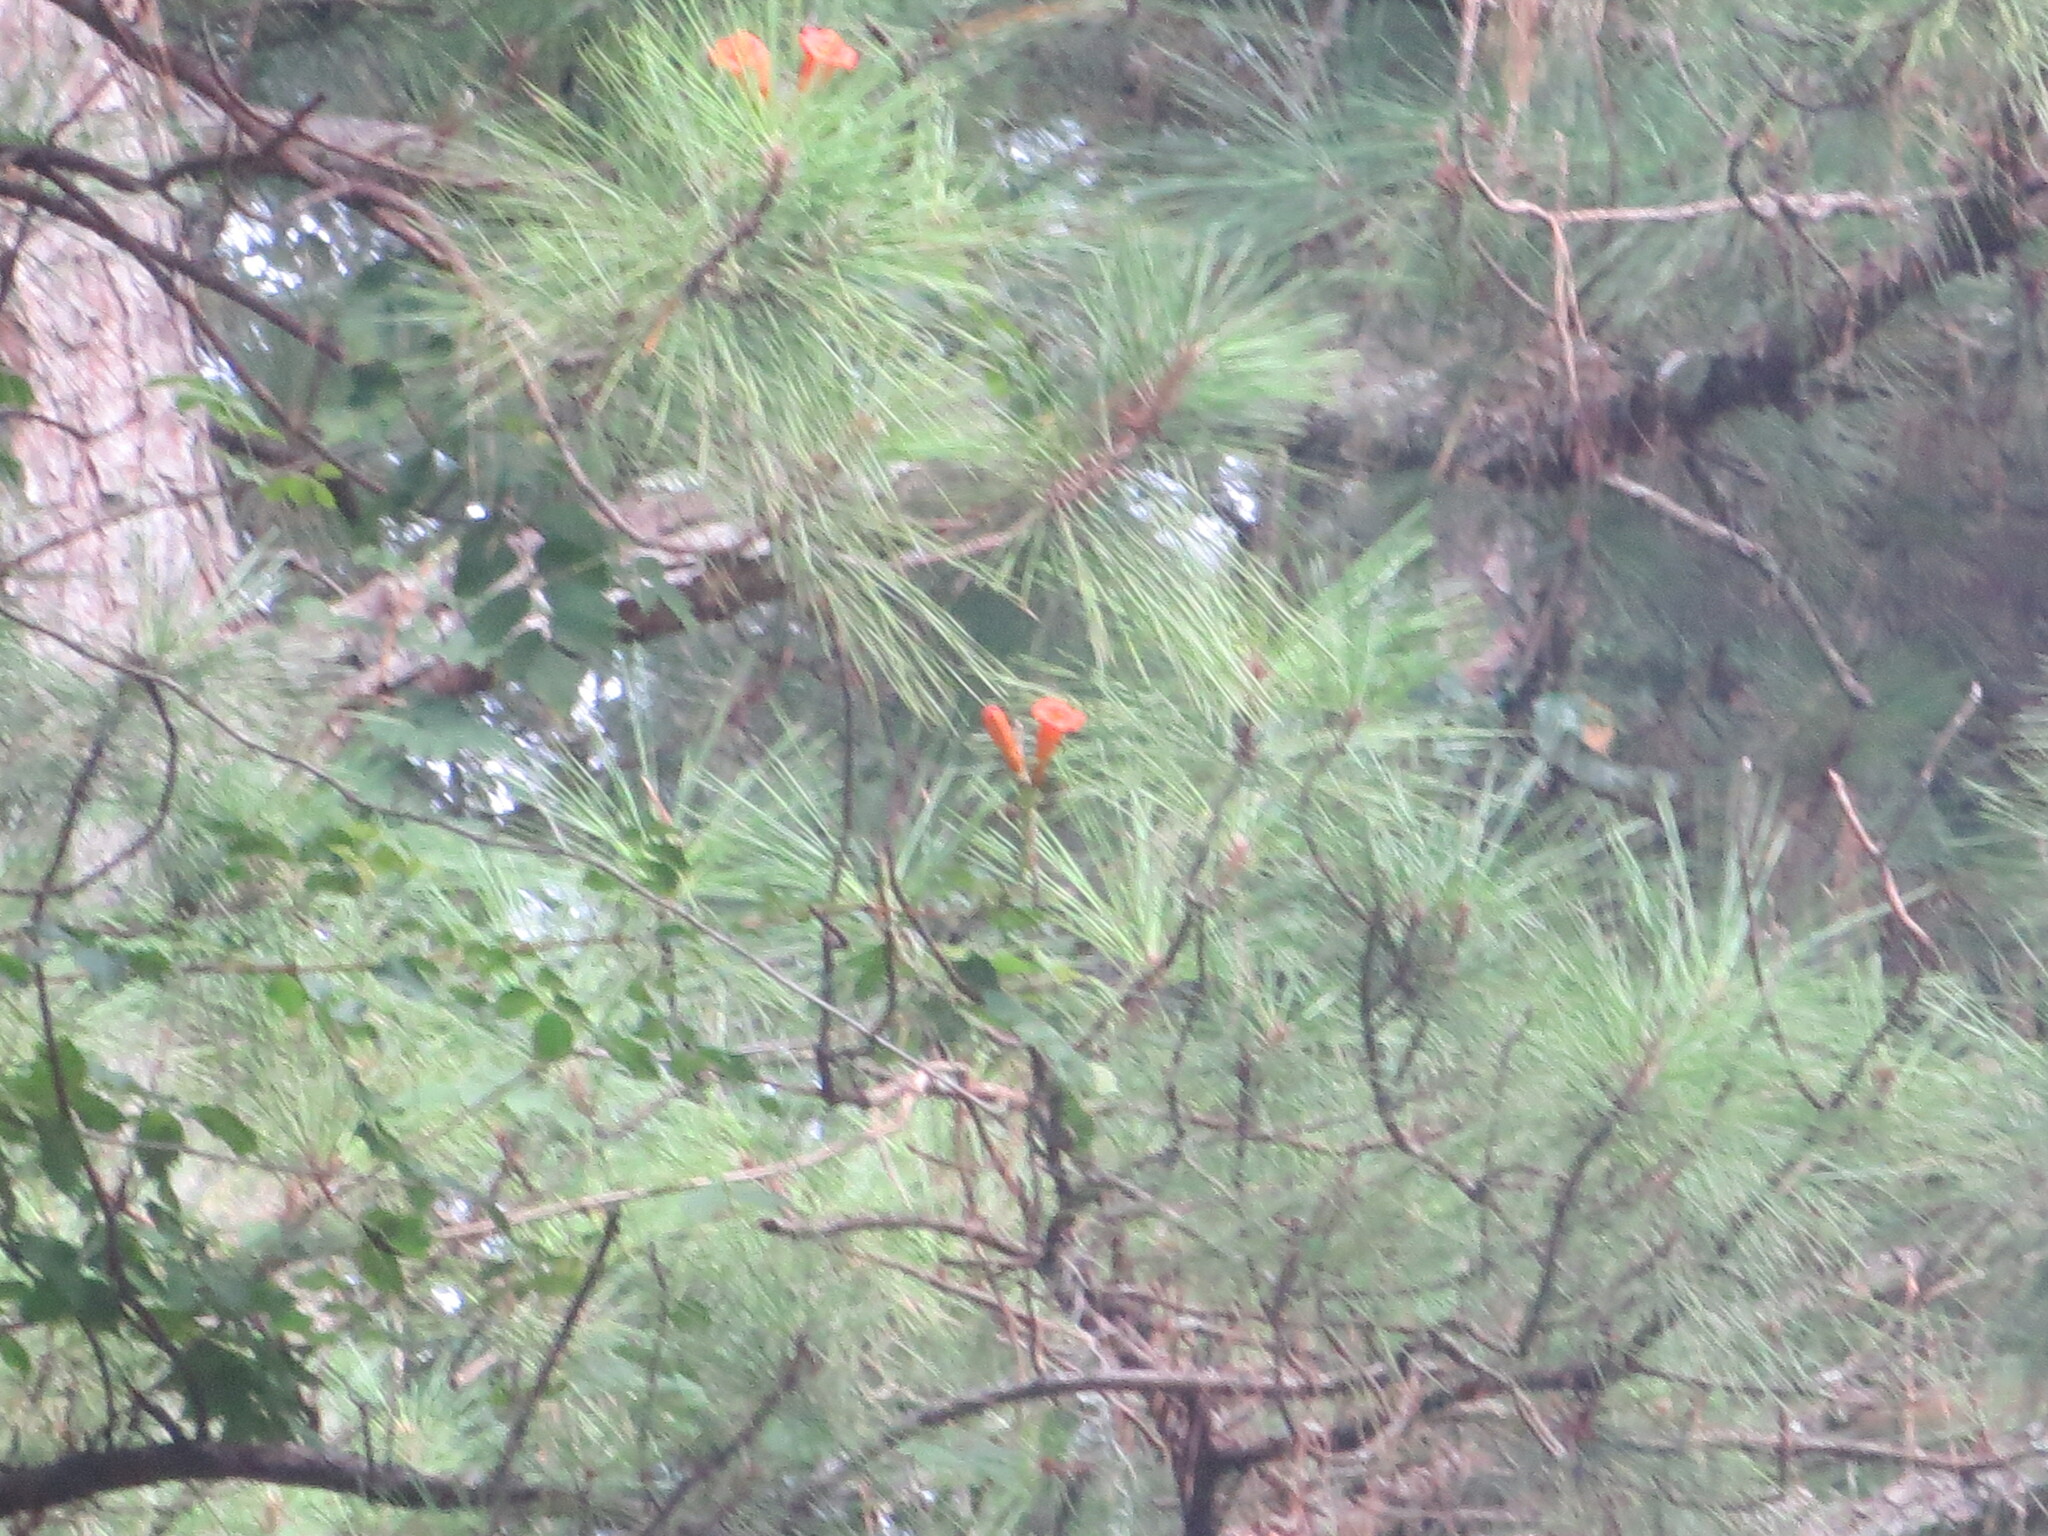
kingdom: Plantae
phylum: Tracheophyta
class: Magnoliopsida
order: Lamiales
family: Bignoniaceae
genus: Campsis
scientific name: Campsis radicans
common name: Trumpet-creeper
